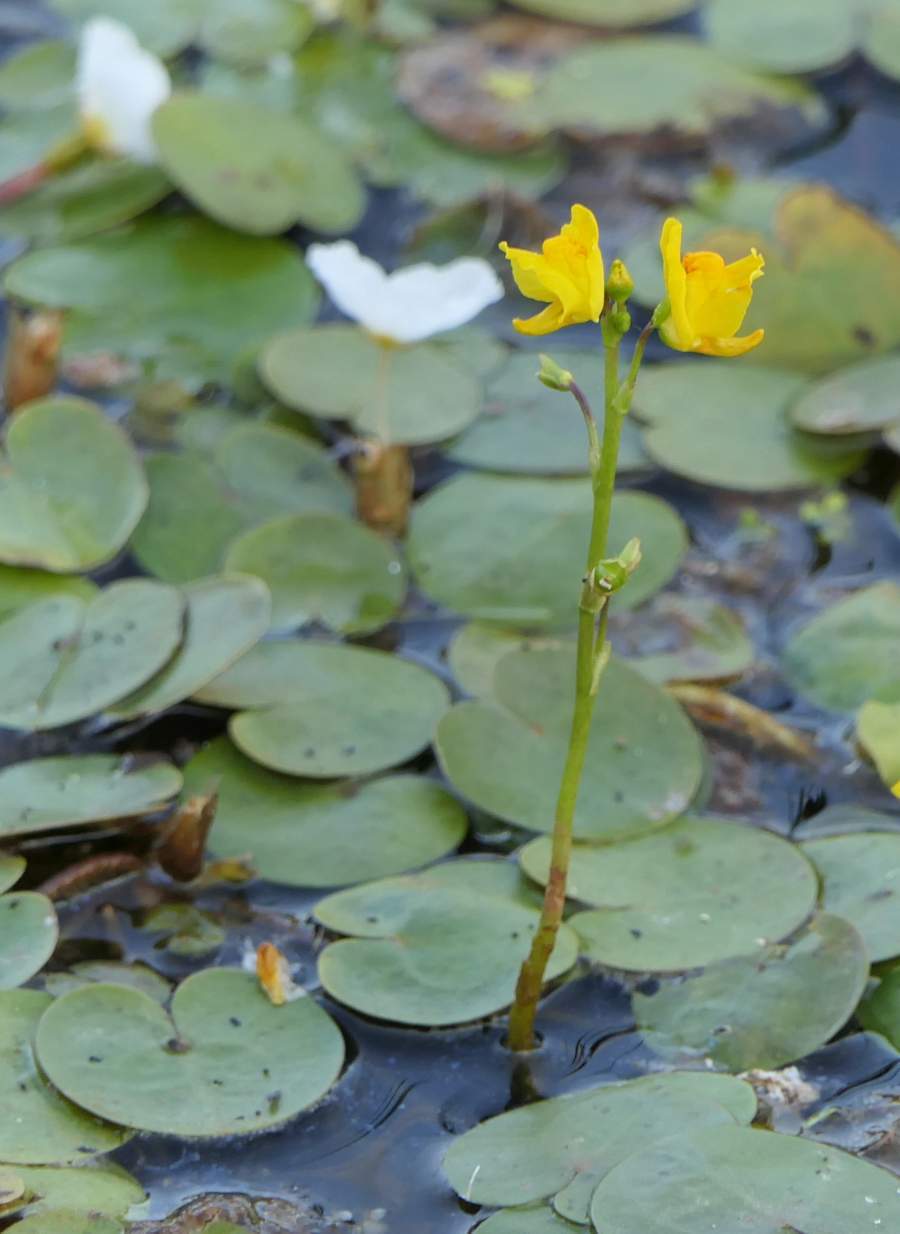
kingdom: Plantae
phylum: Tracheophyta
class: Magnoliopsida
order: Lamiales
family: Lentibulariaceae
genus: Utricularia
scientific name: Utricularia macrorhiza
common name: Common bladderwort
